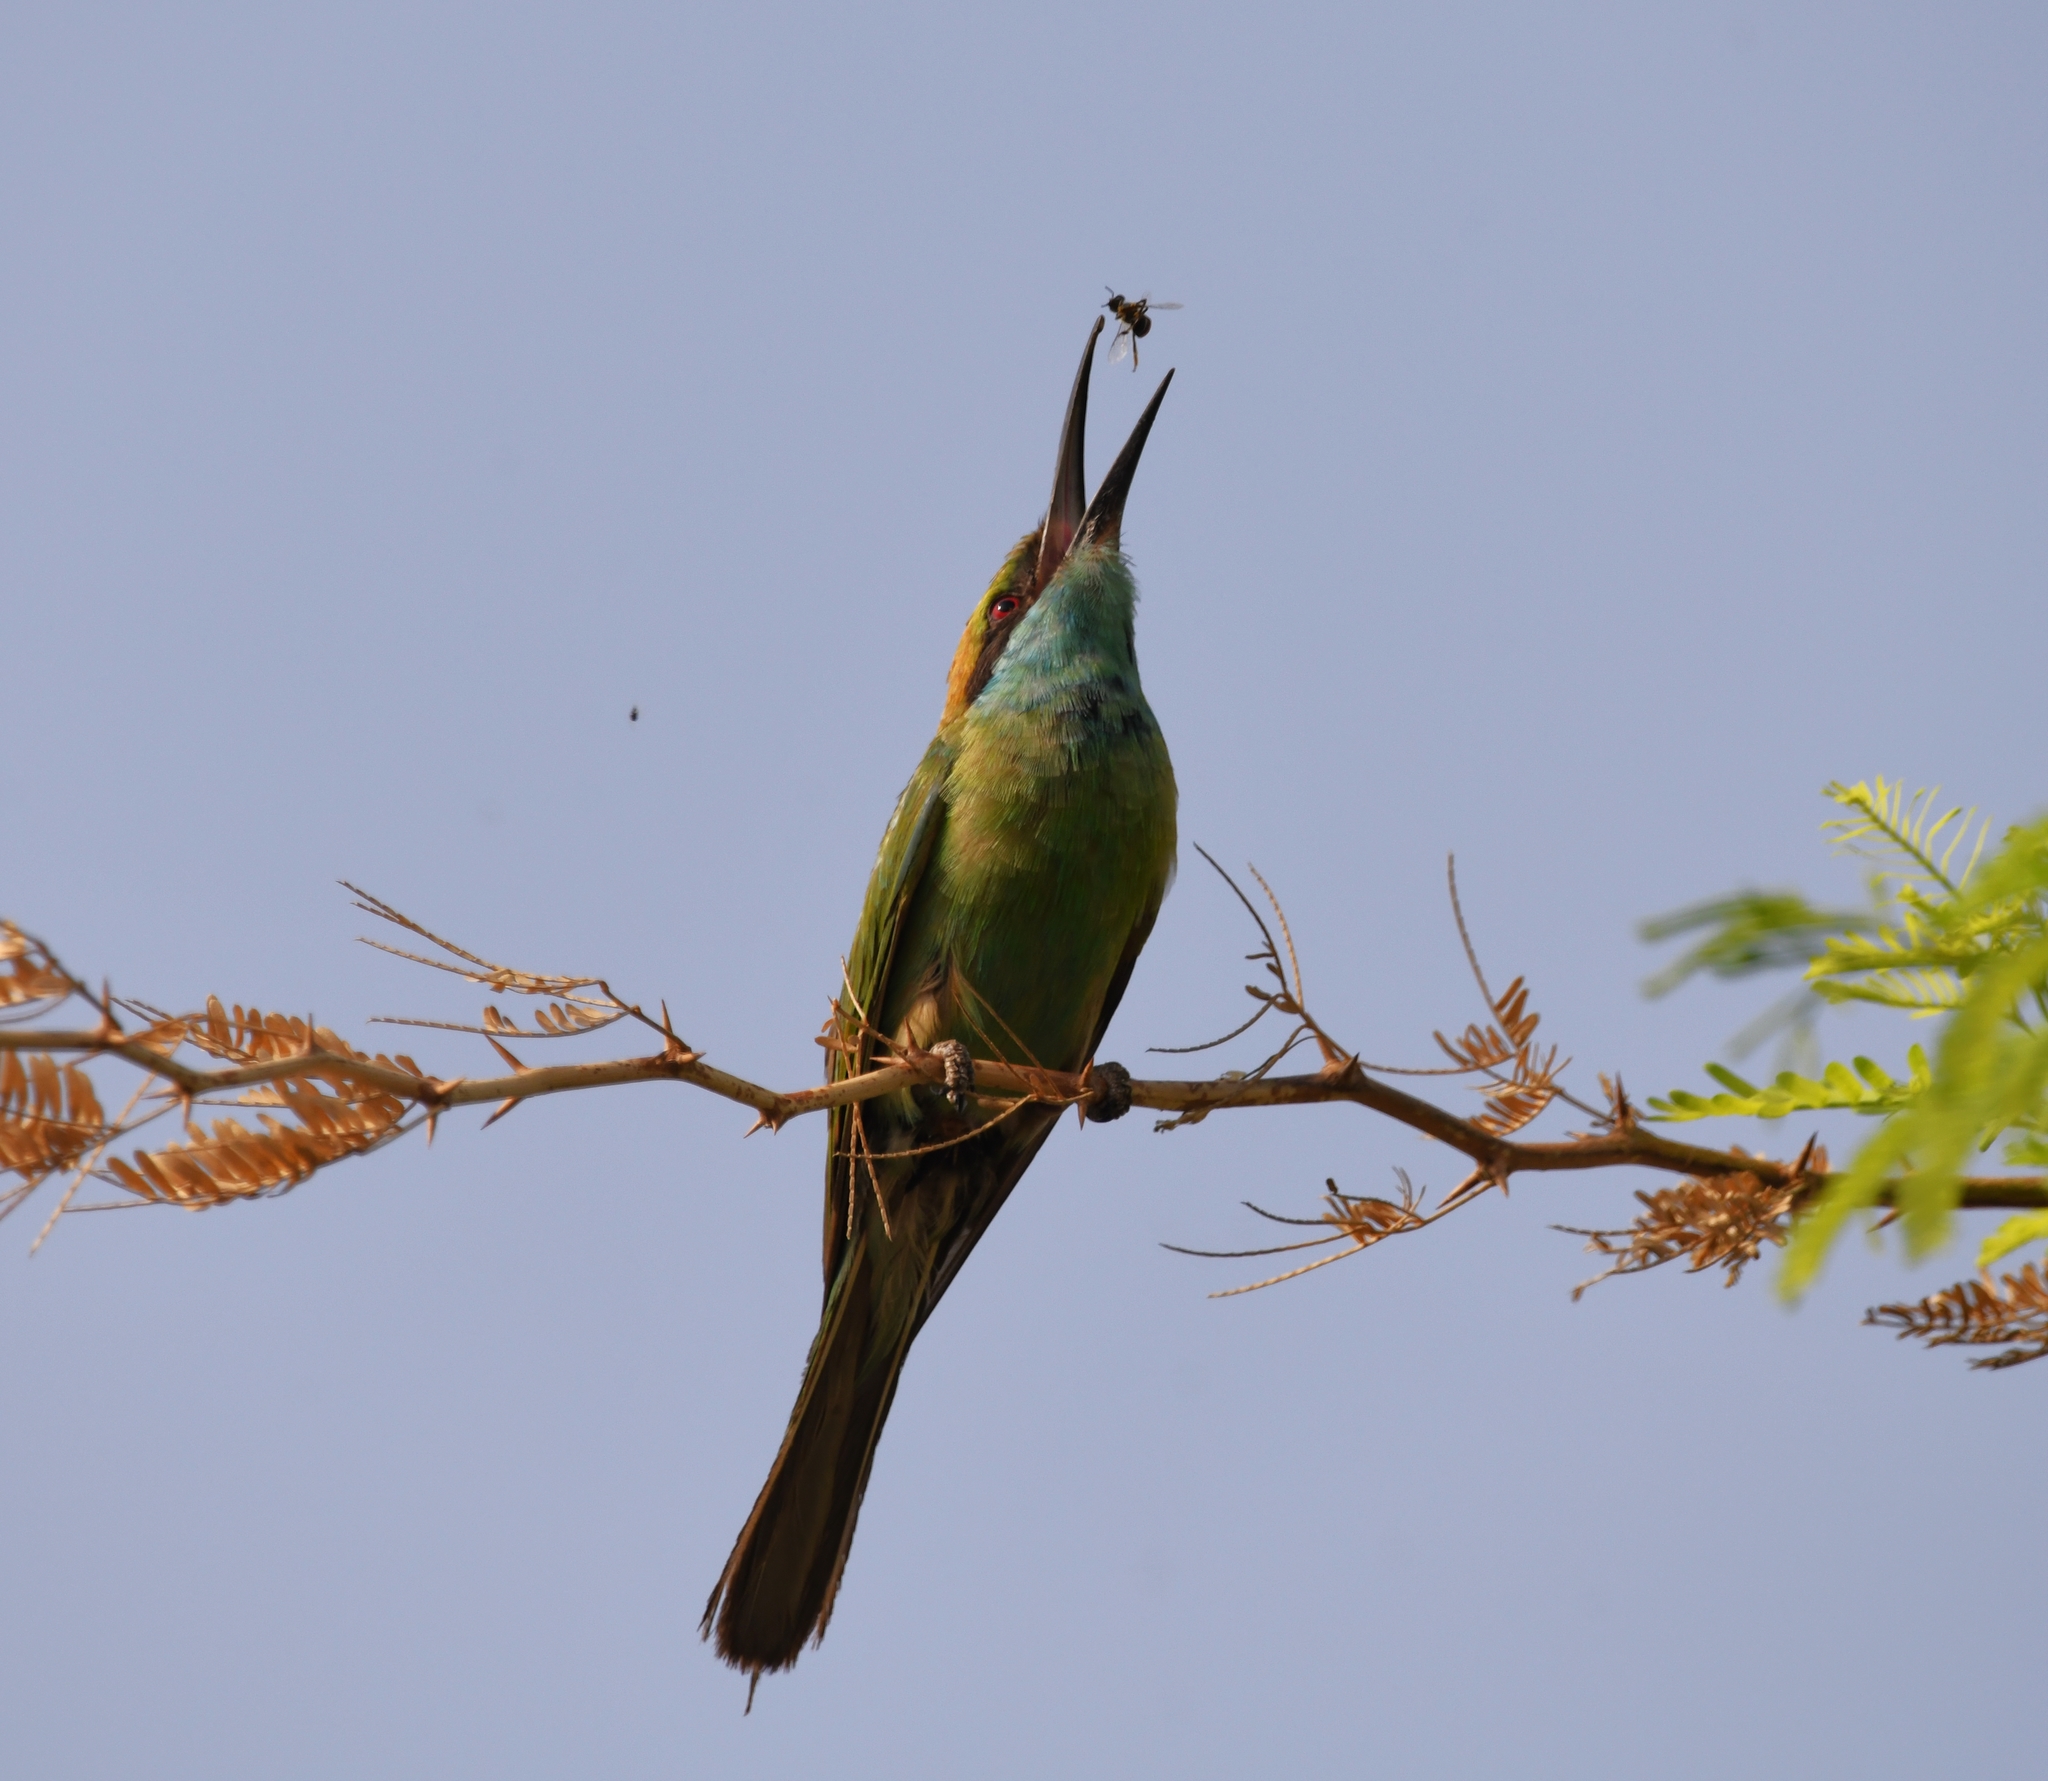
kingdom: Animalia
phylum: Chordata
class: Aves
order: Coraciiformes
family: Meropidae
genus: Merops
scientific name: Merops orientalis
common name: Green bee-eater
